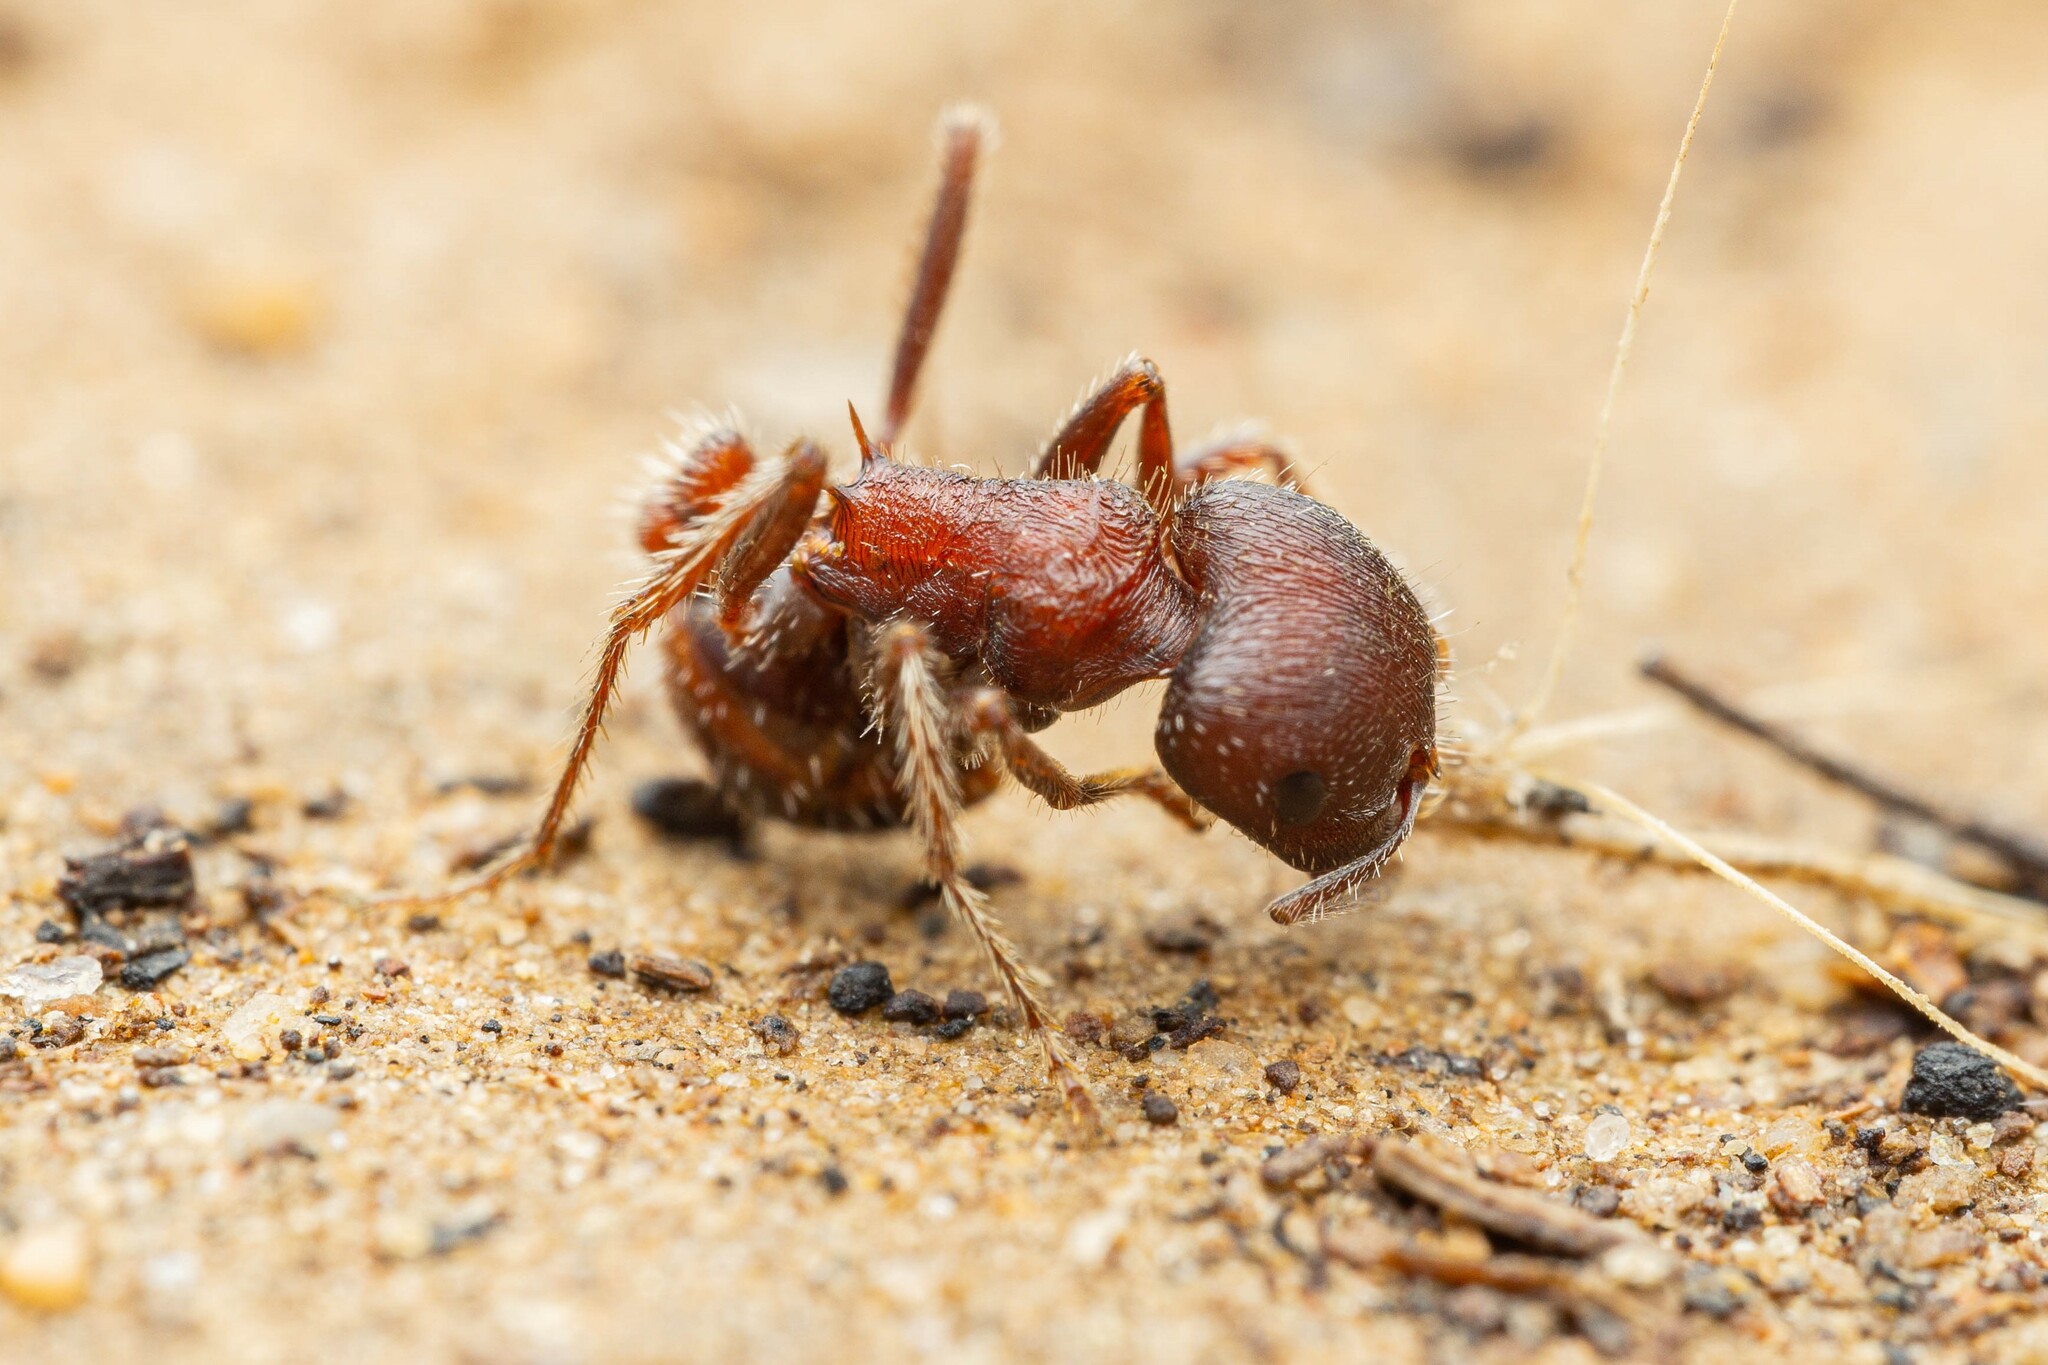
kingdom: Animalia
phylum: Arthropoda
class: Insecta
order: Hymenoptera
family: Formicidae
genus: Pogonomyrmex
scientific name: Pogonomyrmex rugosus
